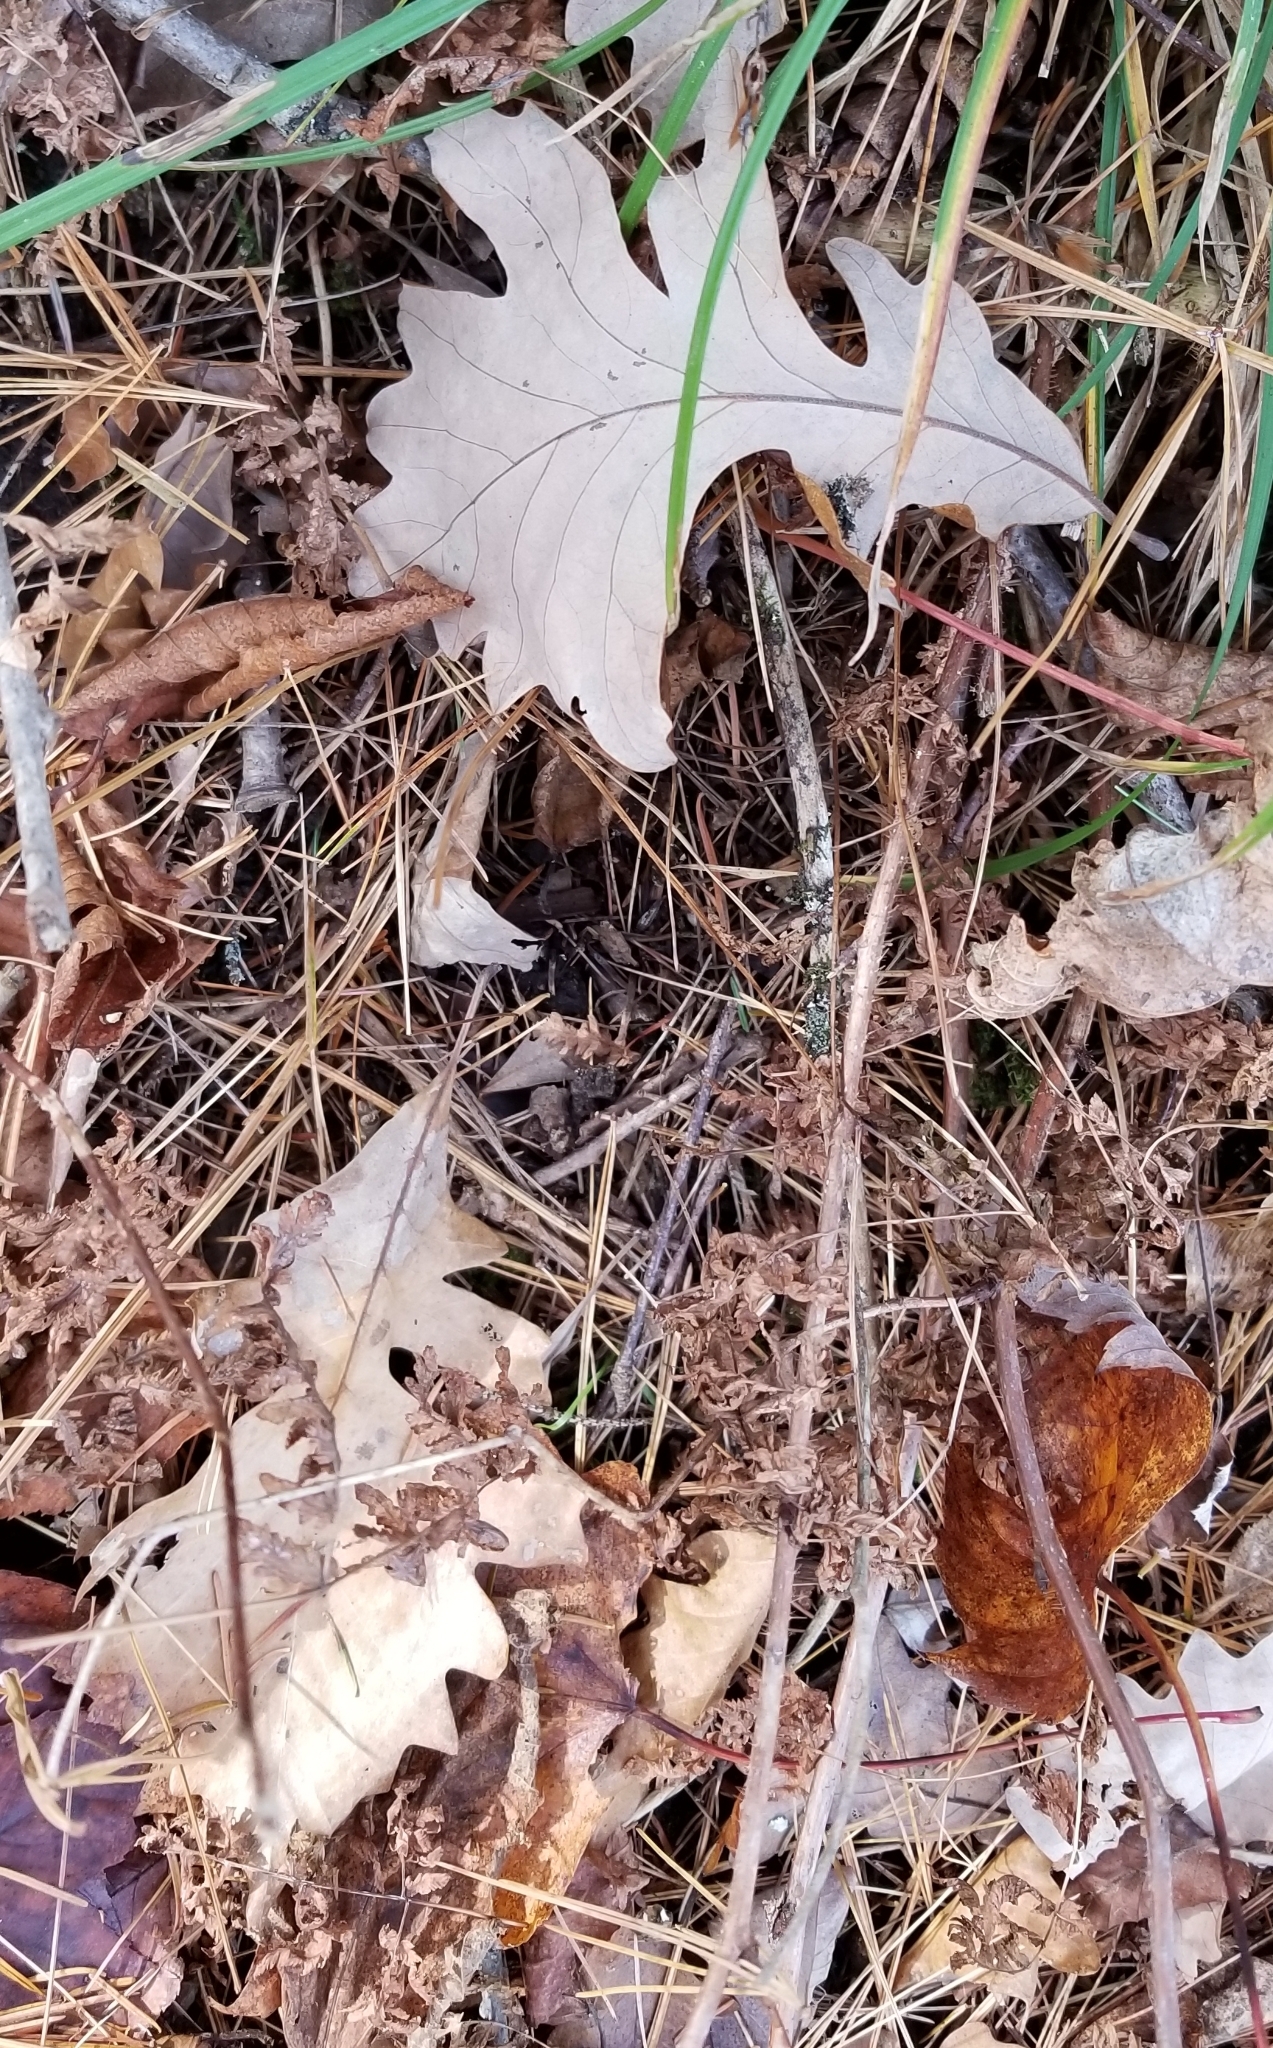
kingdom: Plantae
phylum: Tracheophyta
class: Magnoliopsida
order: Fagales
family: Fagaceae
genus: Quercus
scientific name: Quercus macrocarpa
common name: Bur oak
